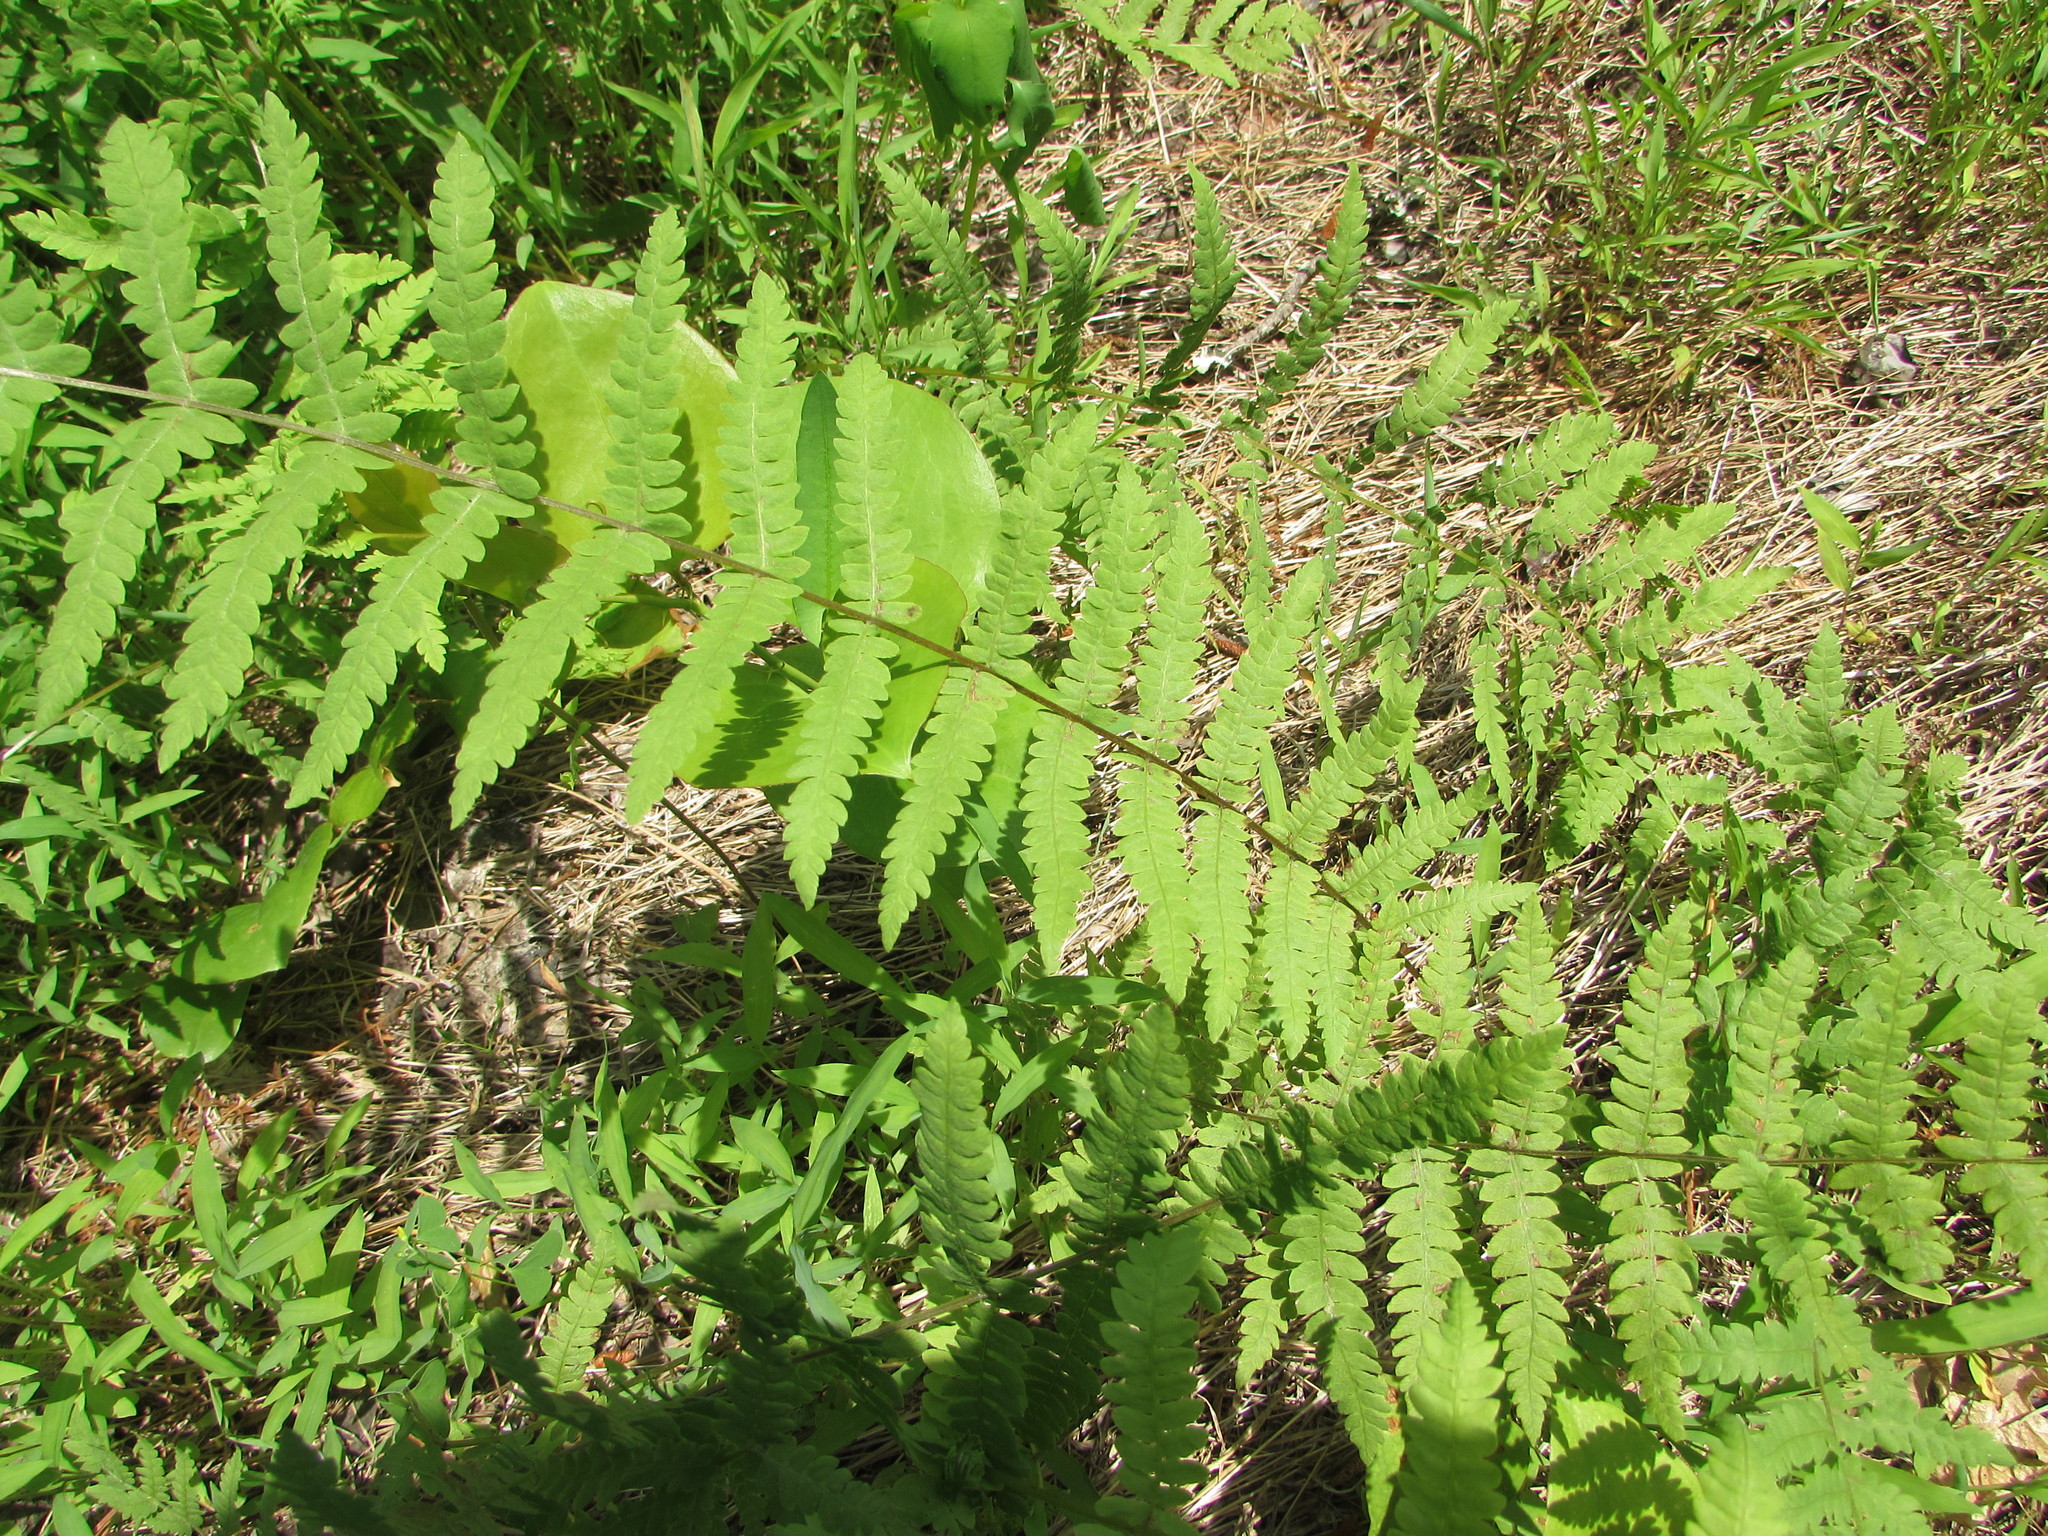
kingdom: Plantae
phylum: Tracheophyta
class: Polypodiopsida
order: Polypodiales
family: Thelypteridaceae
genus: Thelypteris
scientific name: Thelypteris palustris
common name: Marsh fern
